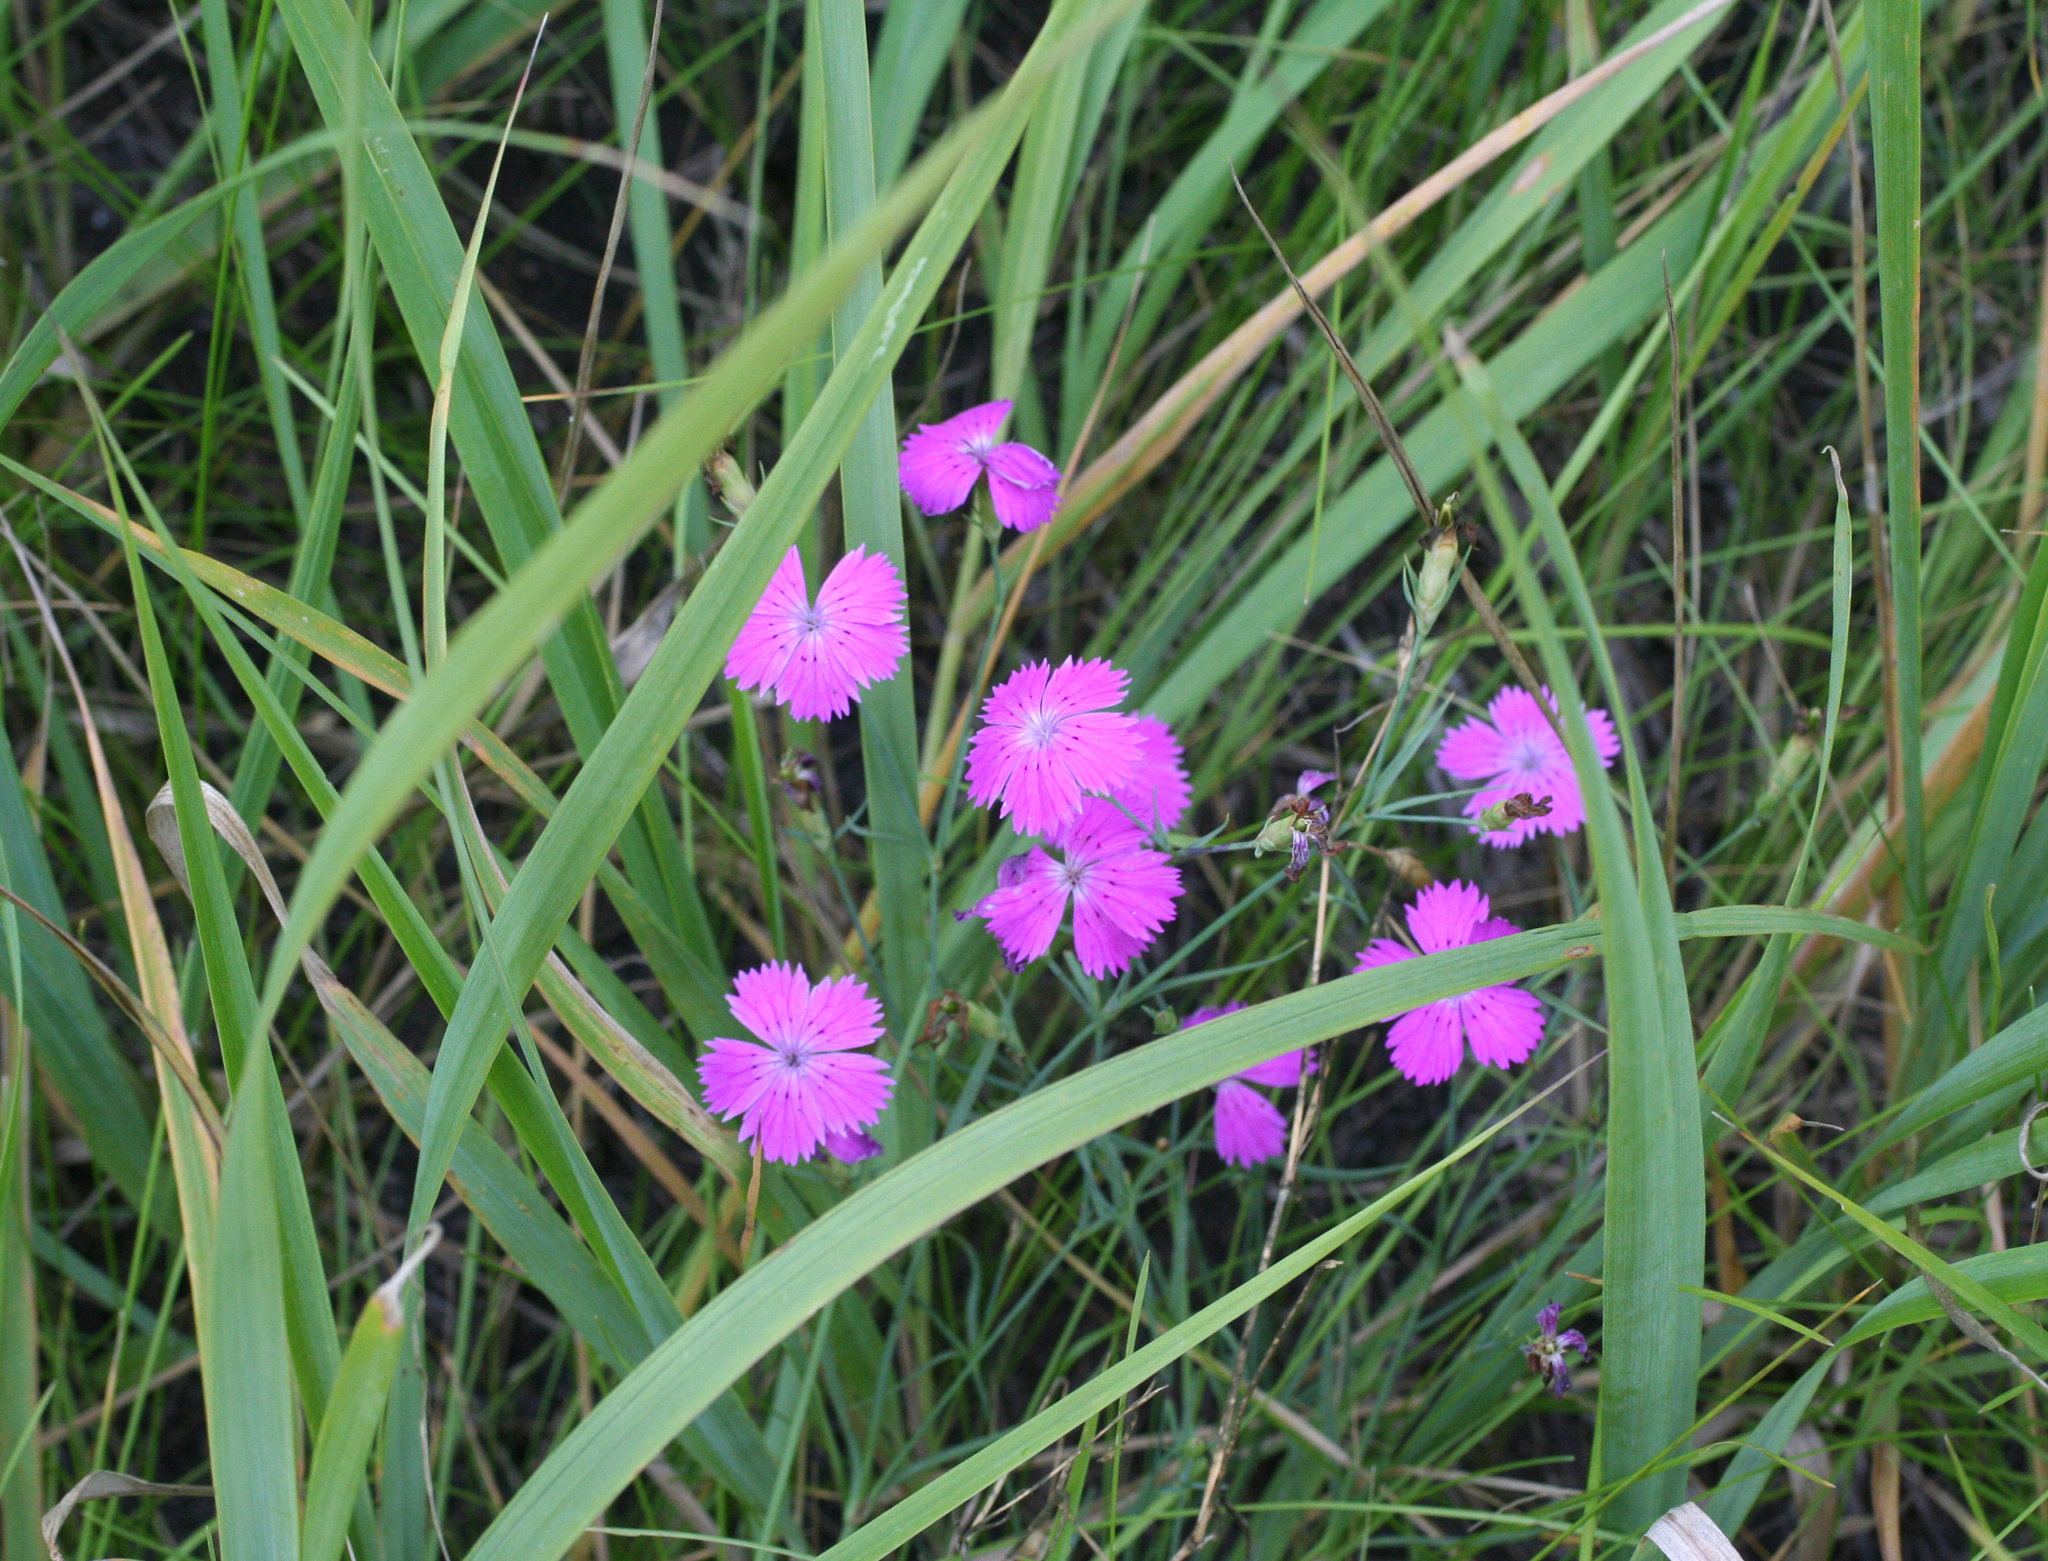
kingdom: Plantae
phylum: Tracheophyta
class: Magnoliopsida
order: Caryophyllales
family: Caryophyllaceae
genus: Dianthus
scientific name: Dianthus chinensis
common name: Rainbow pink
